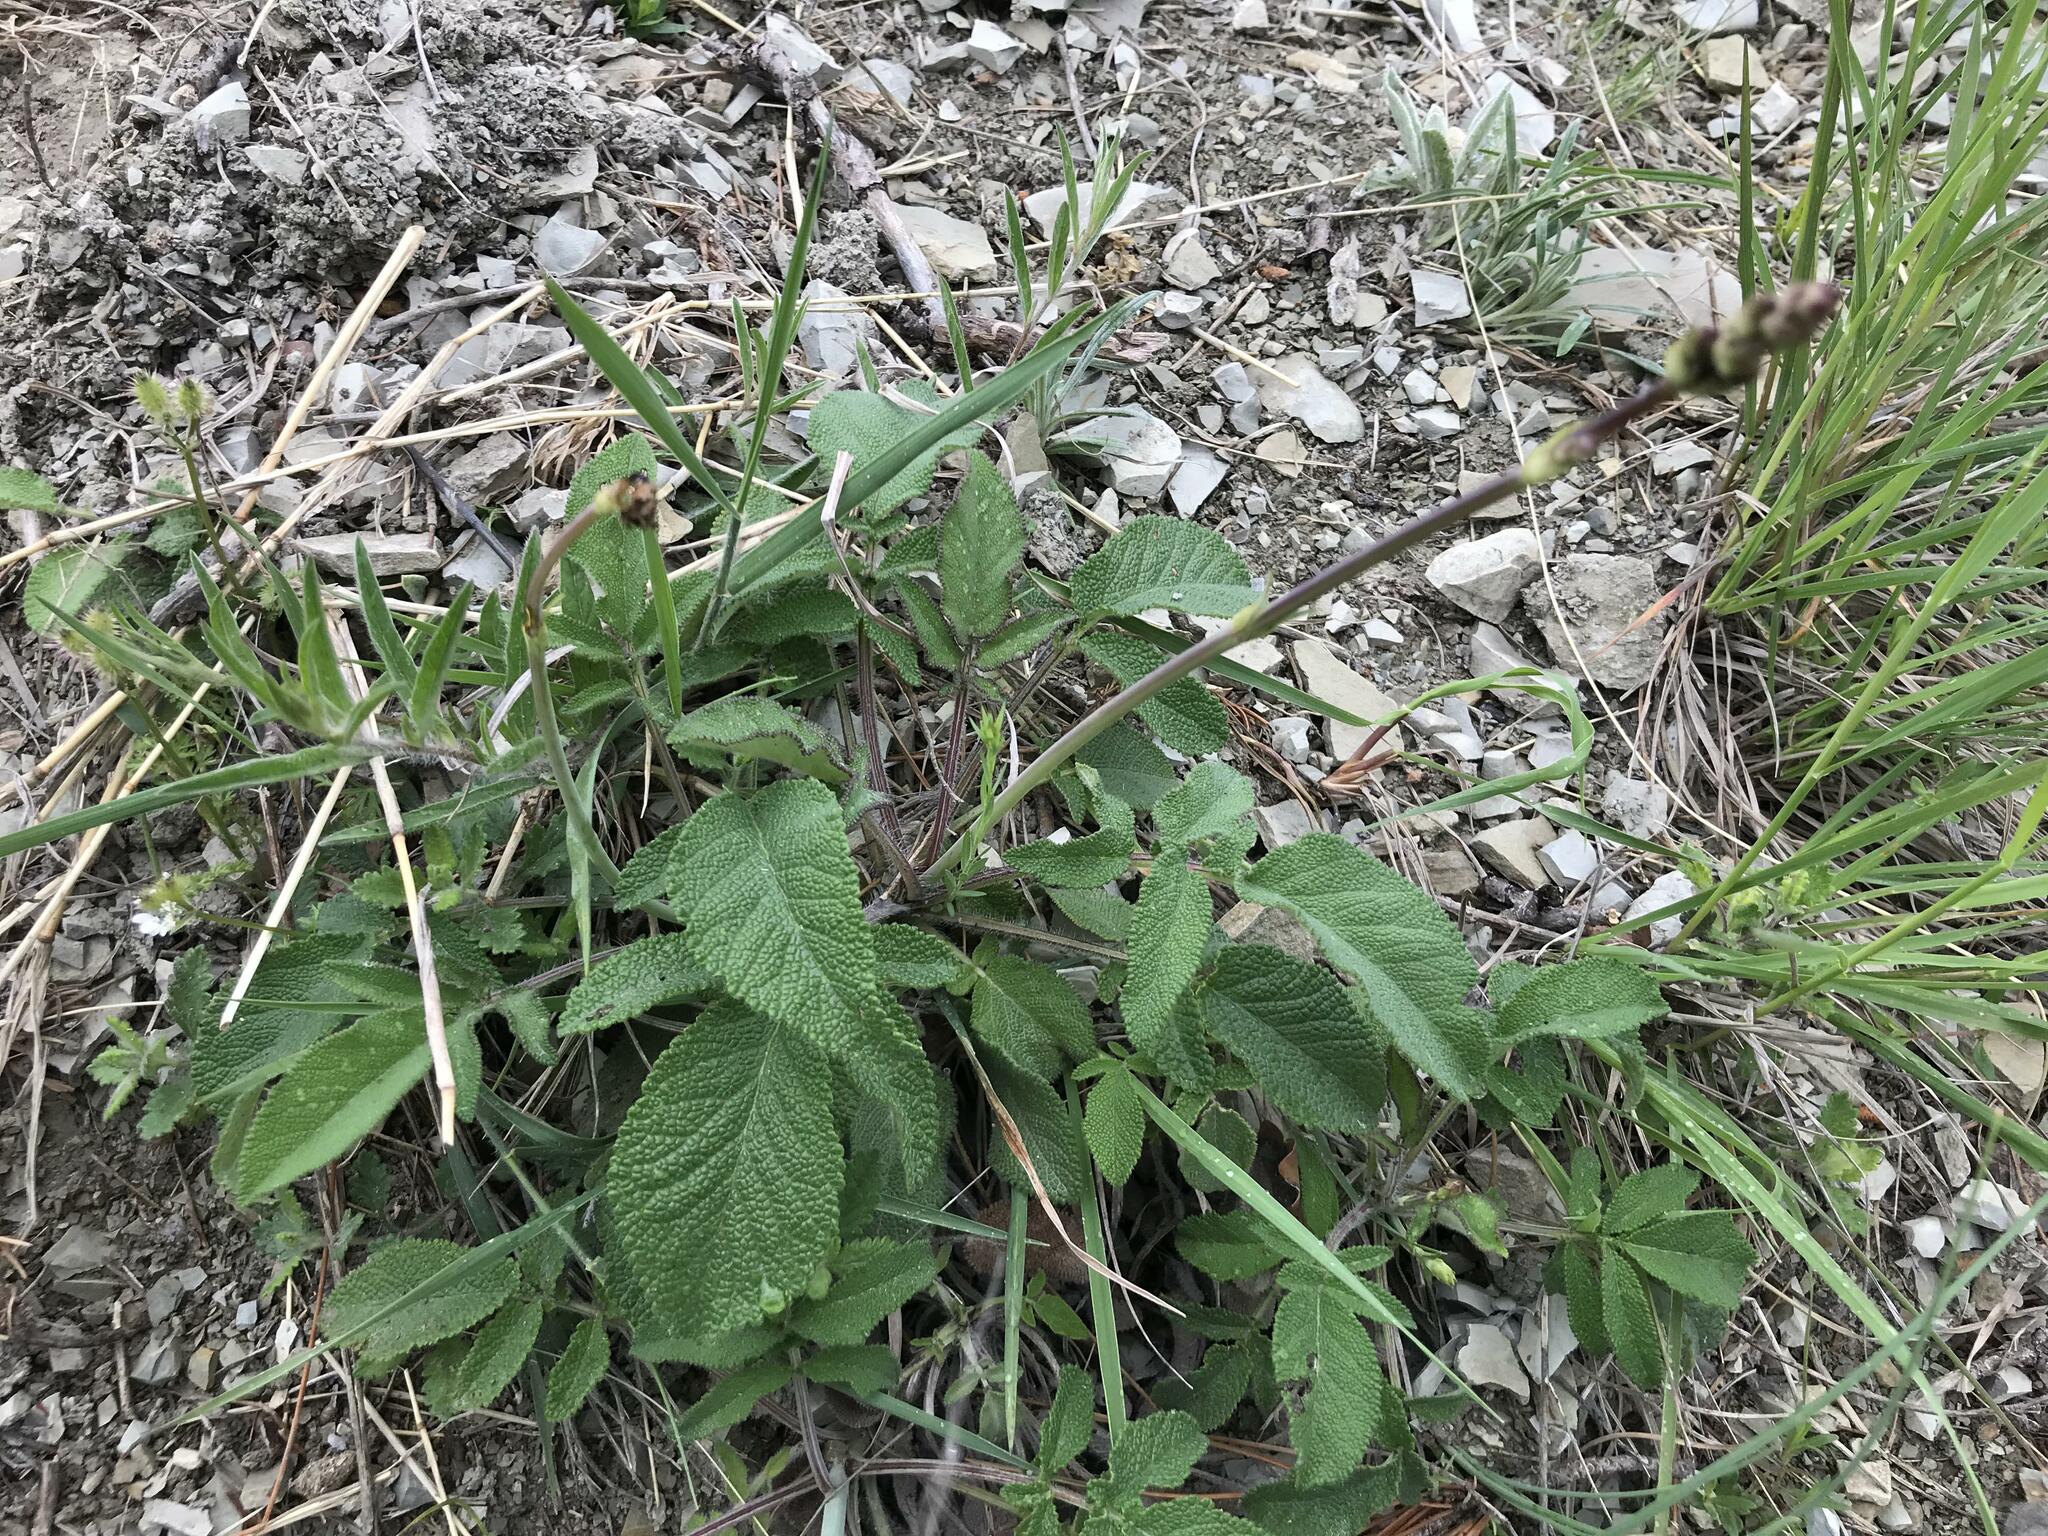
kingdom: Plantae
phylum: Tracheophyta
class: Magnoliopsida
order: Lamiales
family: Lamiaceae
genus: Salvia
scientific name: Salvia ringens
